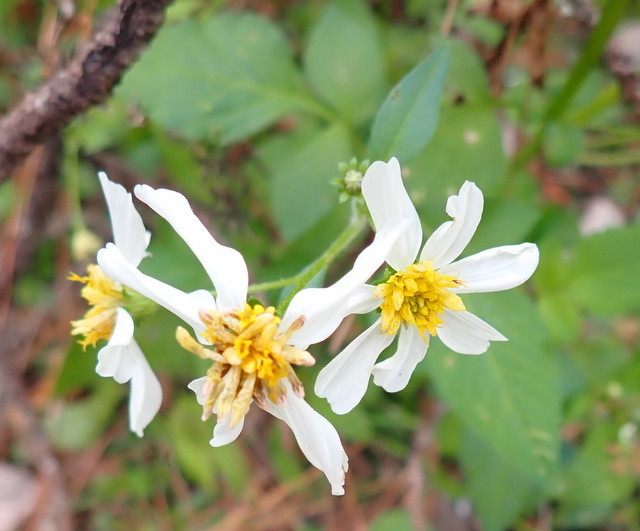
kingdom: Plantae
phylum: Tracheophyta
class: Magnoliopsida
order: Asterales
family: Asteraceae
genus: Bidens
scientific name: Bidens alba
